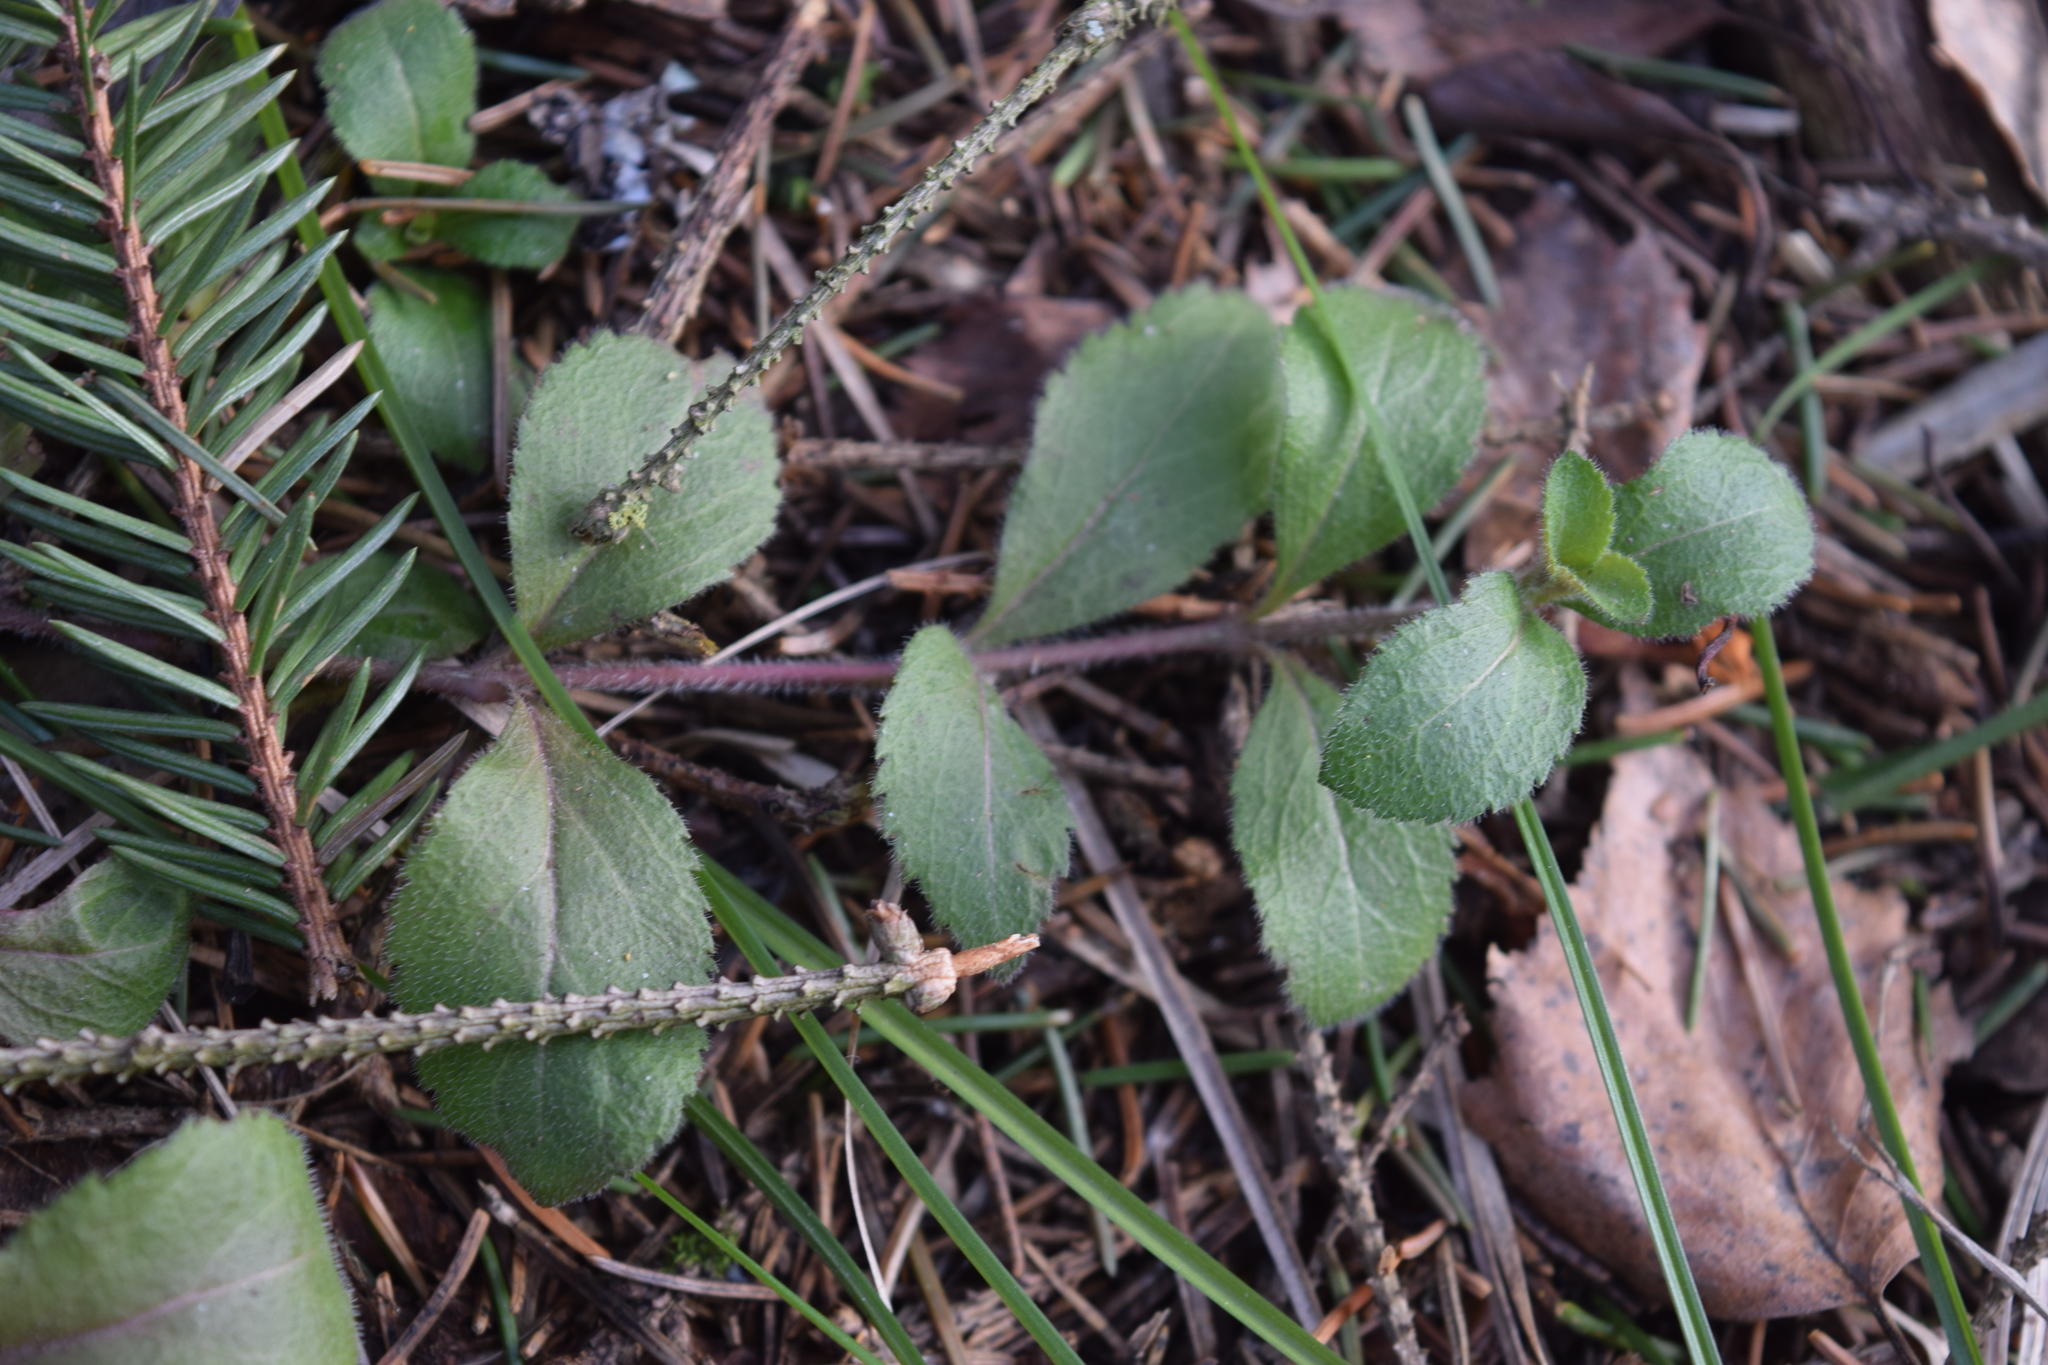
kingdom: Plantae
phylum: Tracheophyta
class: Magnoliopsida
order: Lamiales
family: Plantaginaceae
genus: Veronica
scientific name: Veronica officinalis
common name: Common speedwell
